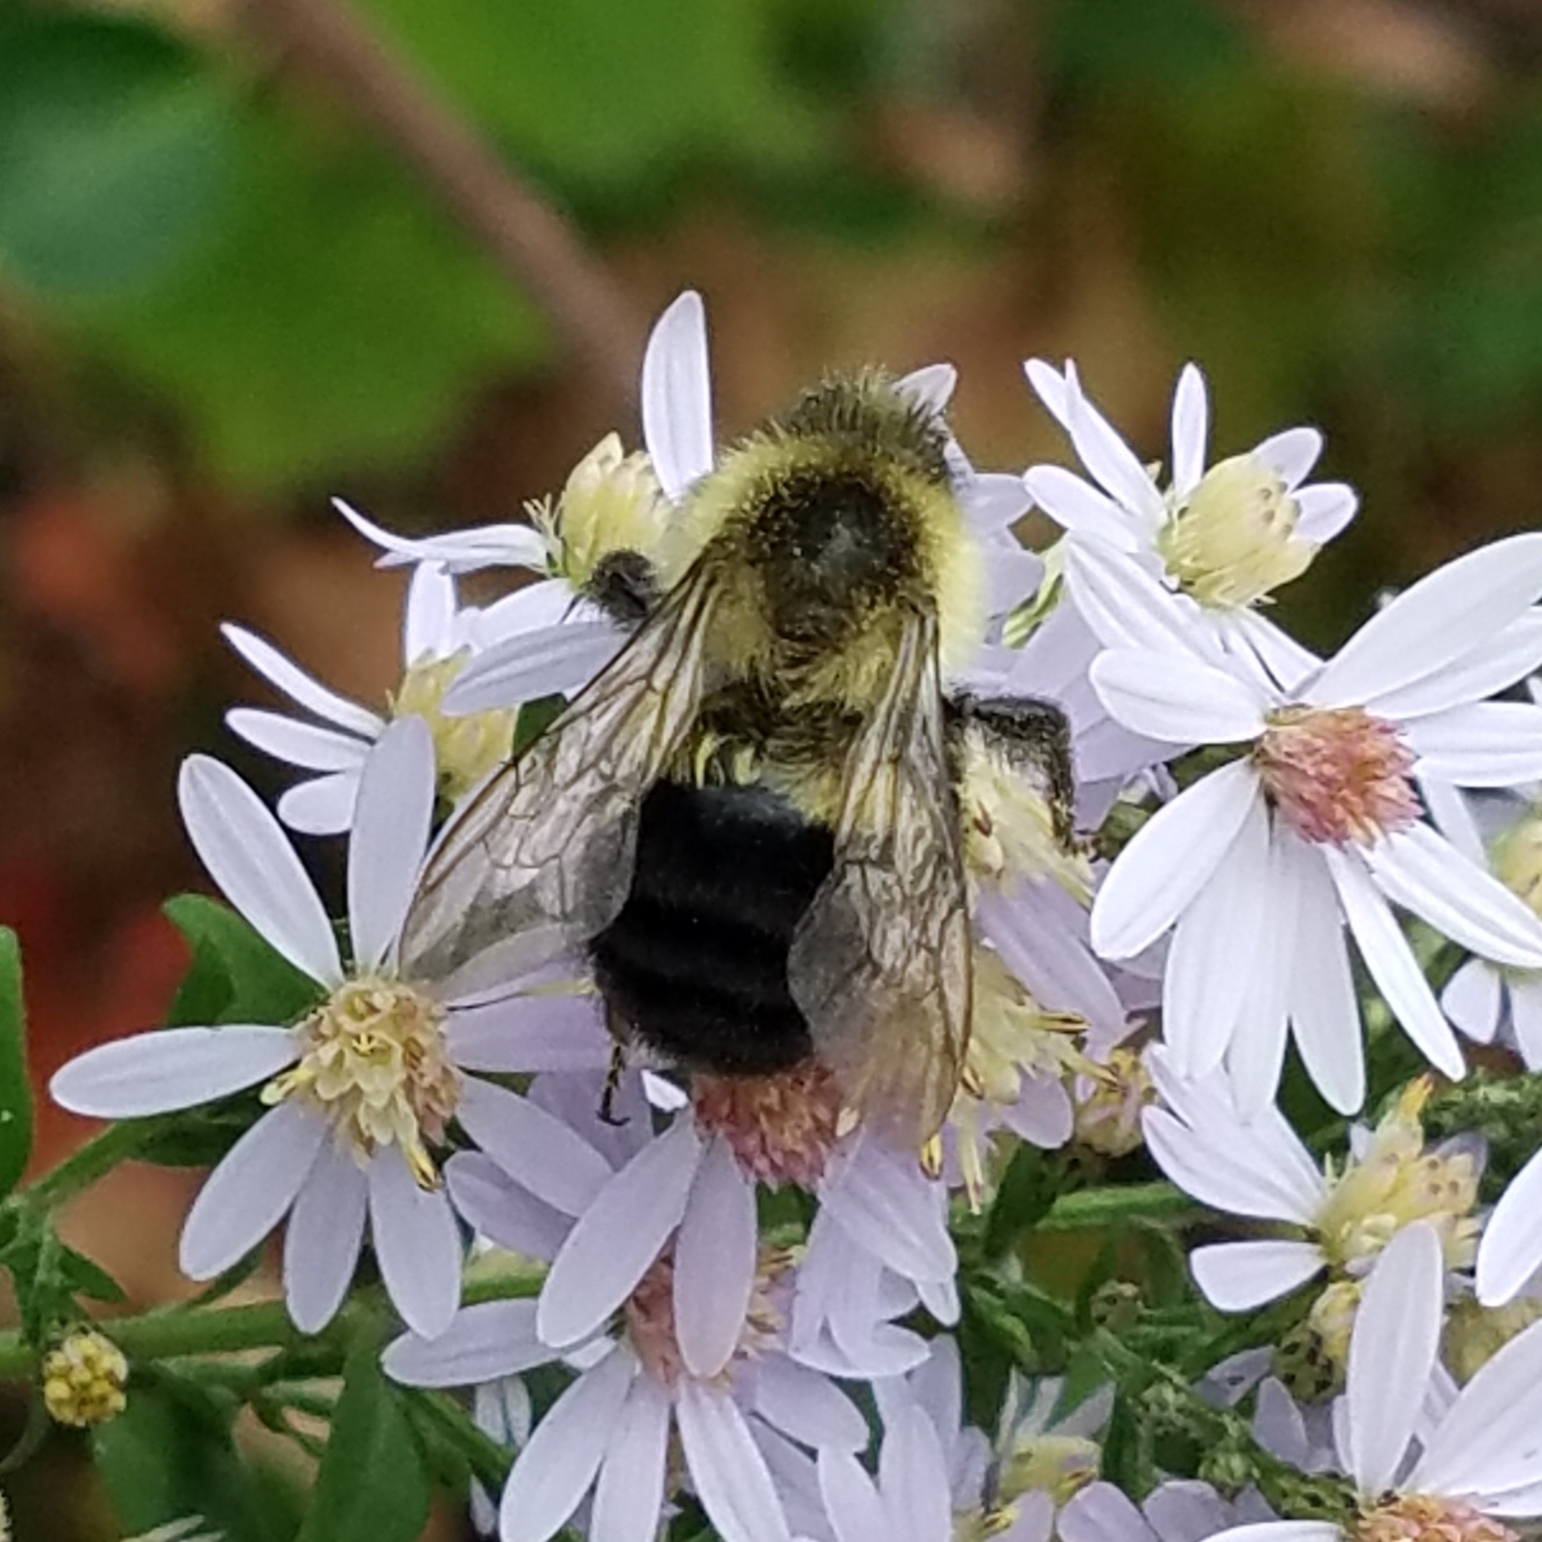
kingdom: Animalia
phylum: Arthropoda
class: Insecta
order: Hymenoptera
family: Apidae
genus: Bombus
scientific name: Bombus impatiens
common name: Common eastern bumble bee
